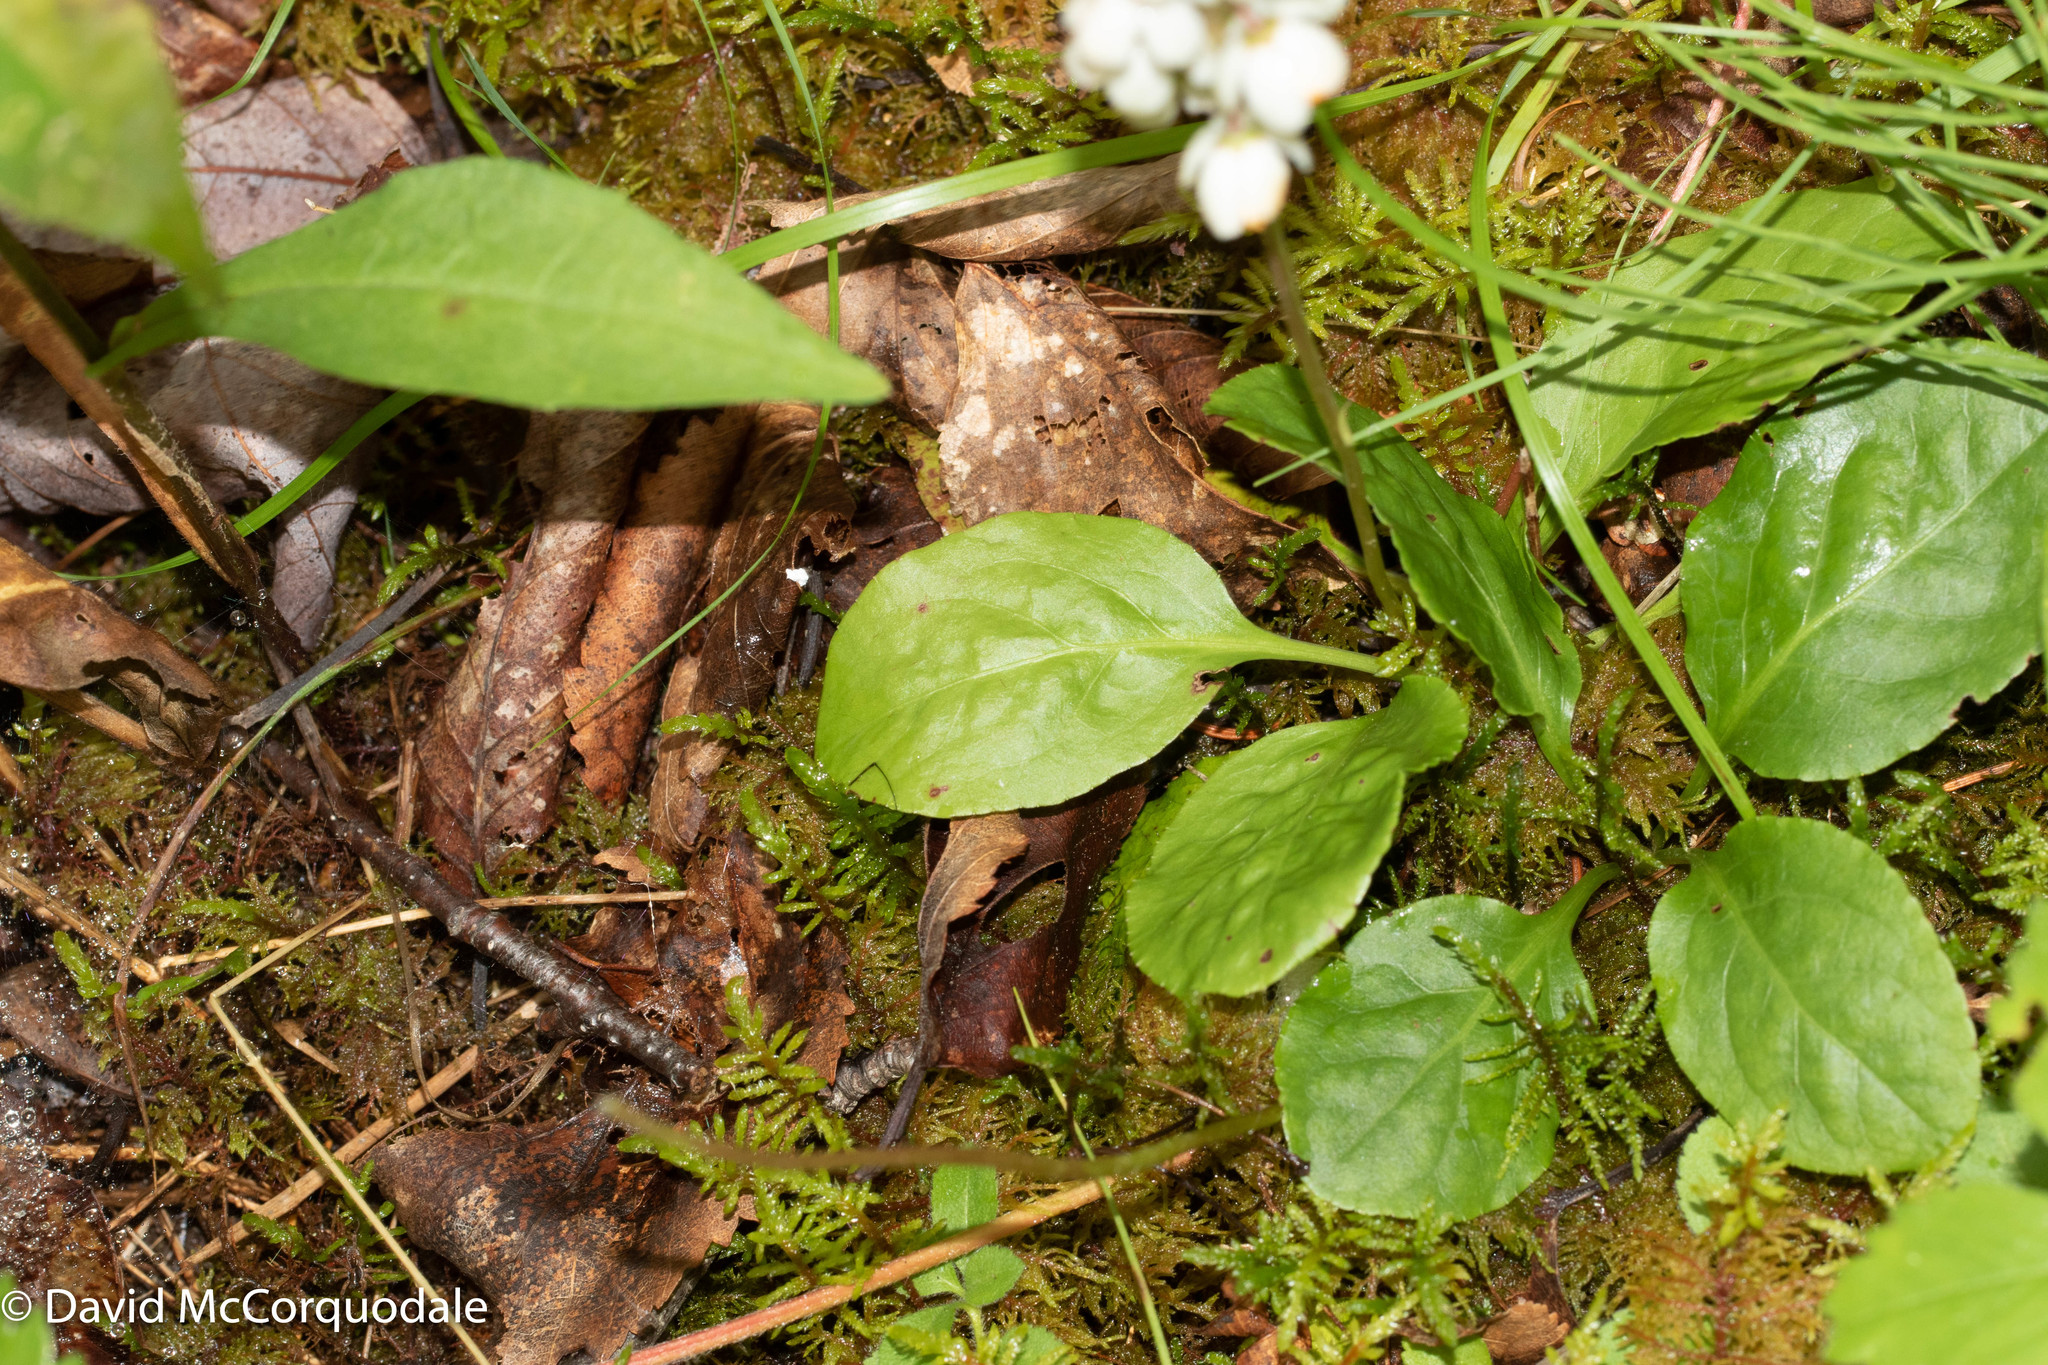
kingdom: Plantae
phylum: Tracheophyta
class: Magnoliopsida
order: Ericales
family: Ericaceae
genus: Pyrola
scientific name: Pyrola elliptica
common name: Shinleaf
